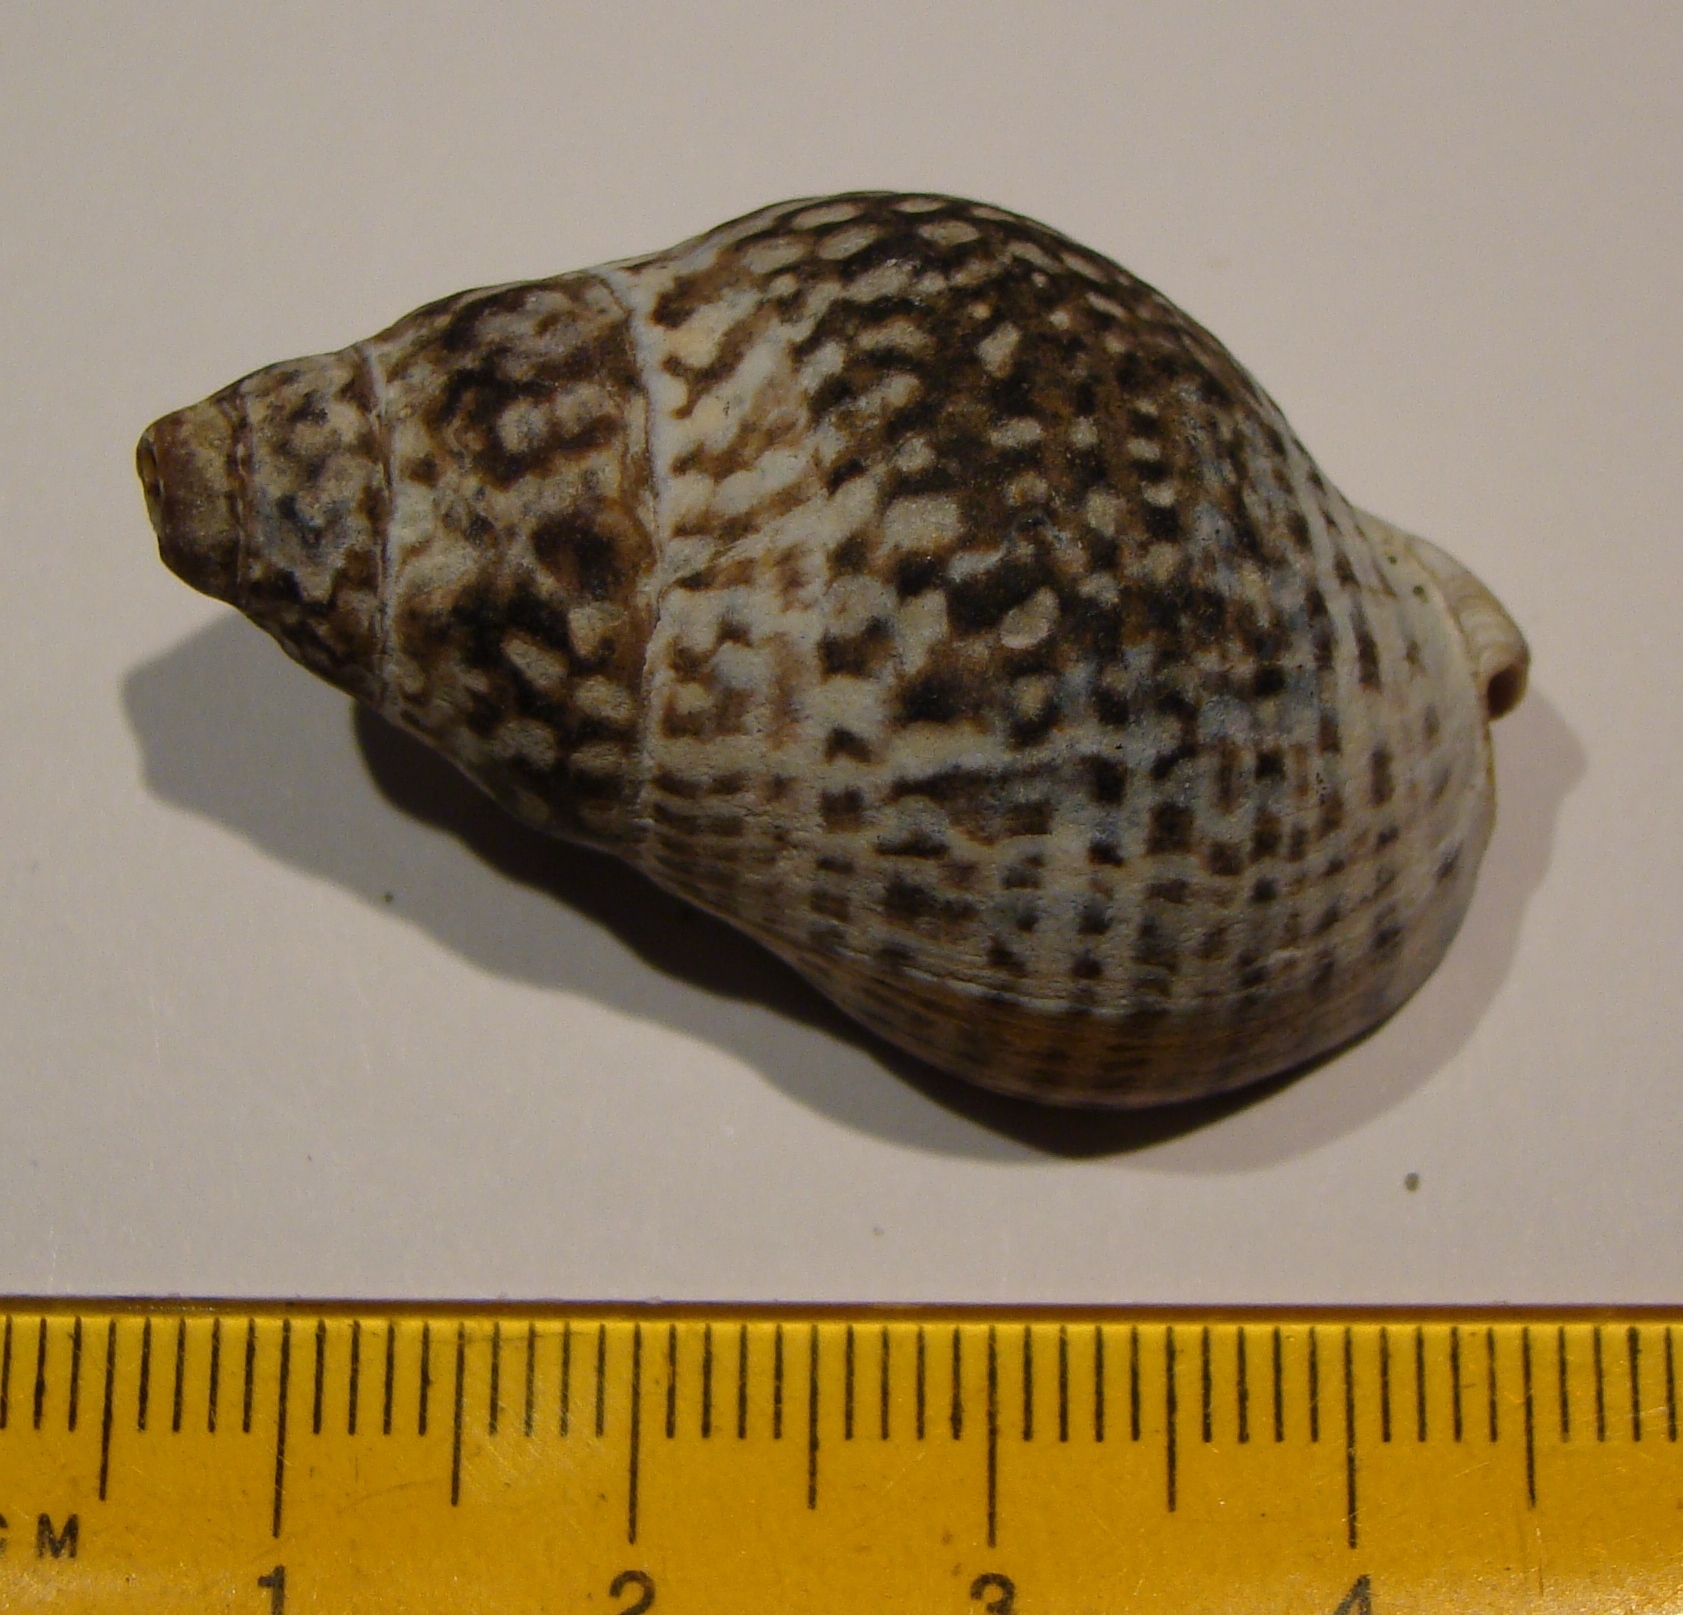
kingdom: Animalia
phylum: Mollusca
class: Gastropoda
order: Neogastropoda
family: Cominellidae
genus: Cominella
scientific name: Cominella maculosa
